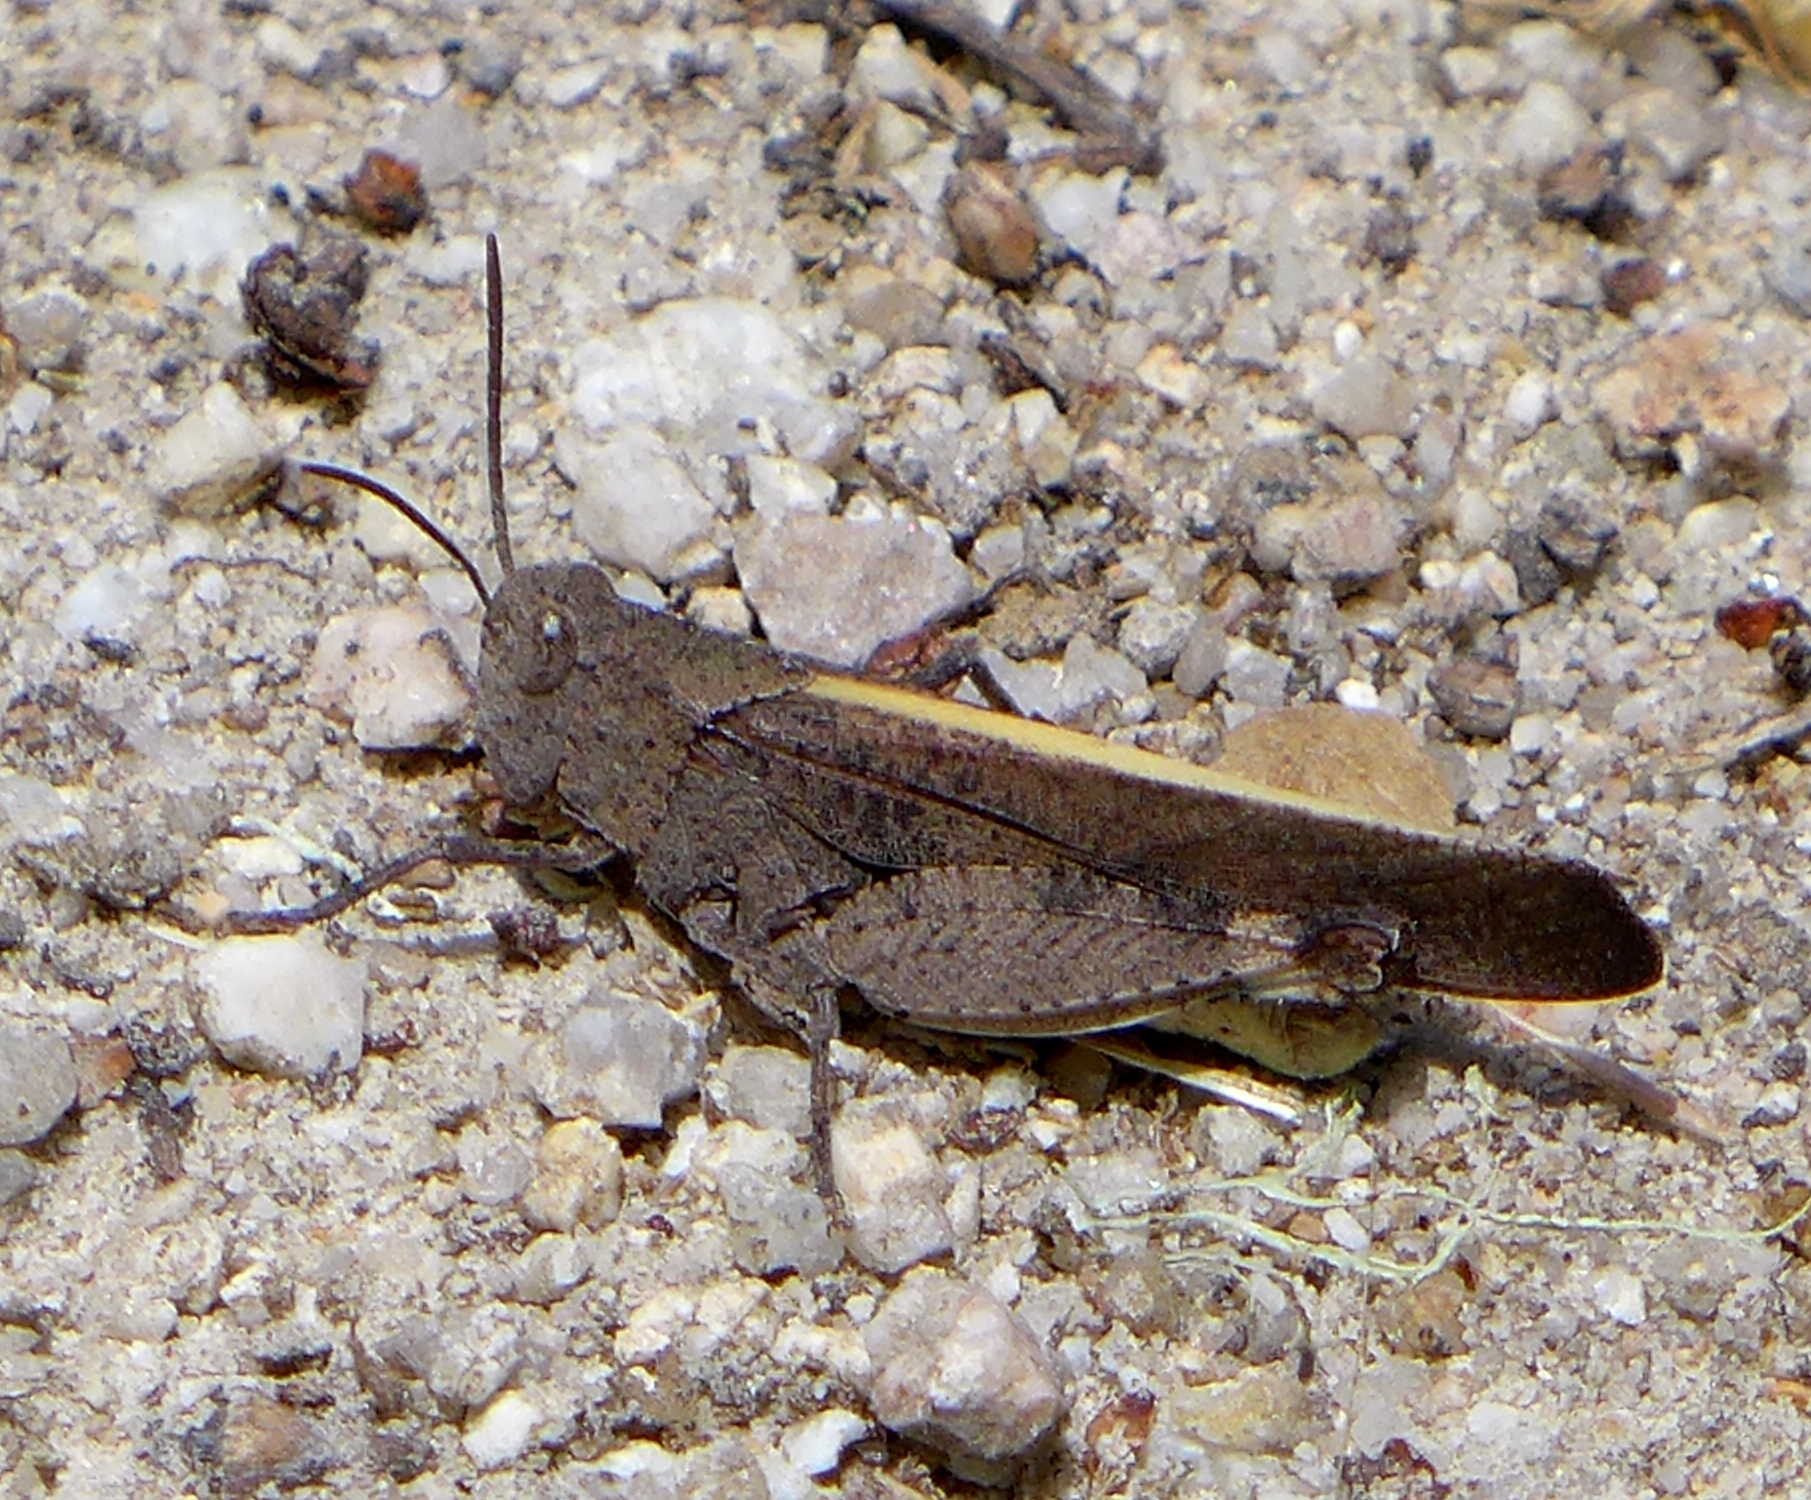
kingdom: Animalia
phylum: Arthropoda
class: Insecta
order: Orthoptera
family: Acrididae
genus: Arphia
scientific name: Arphia behrensi
